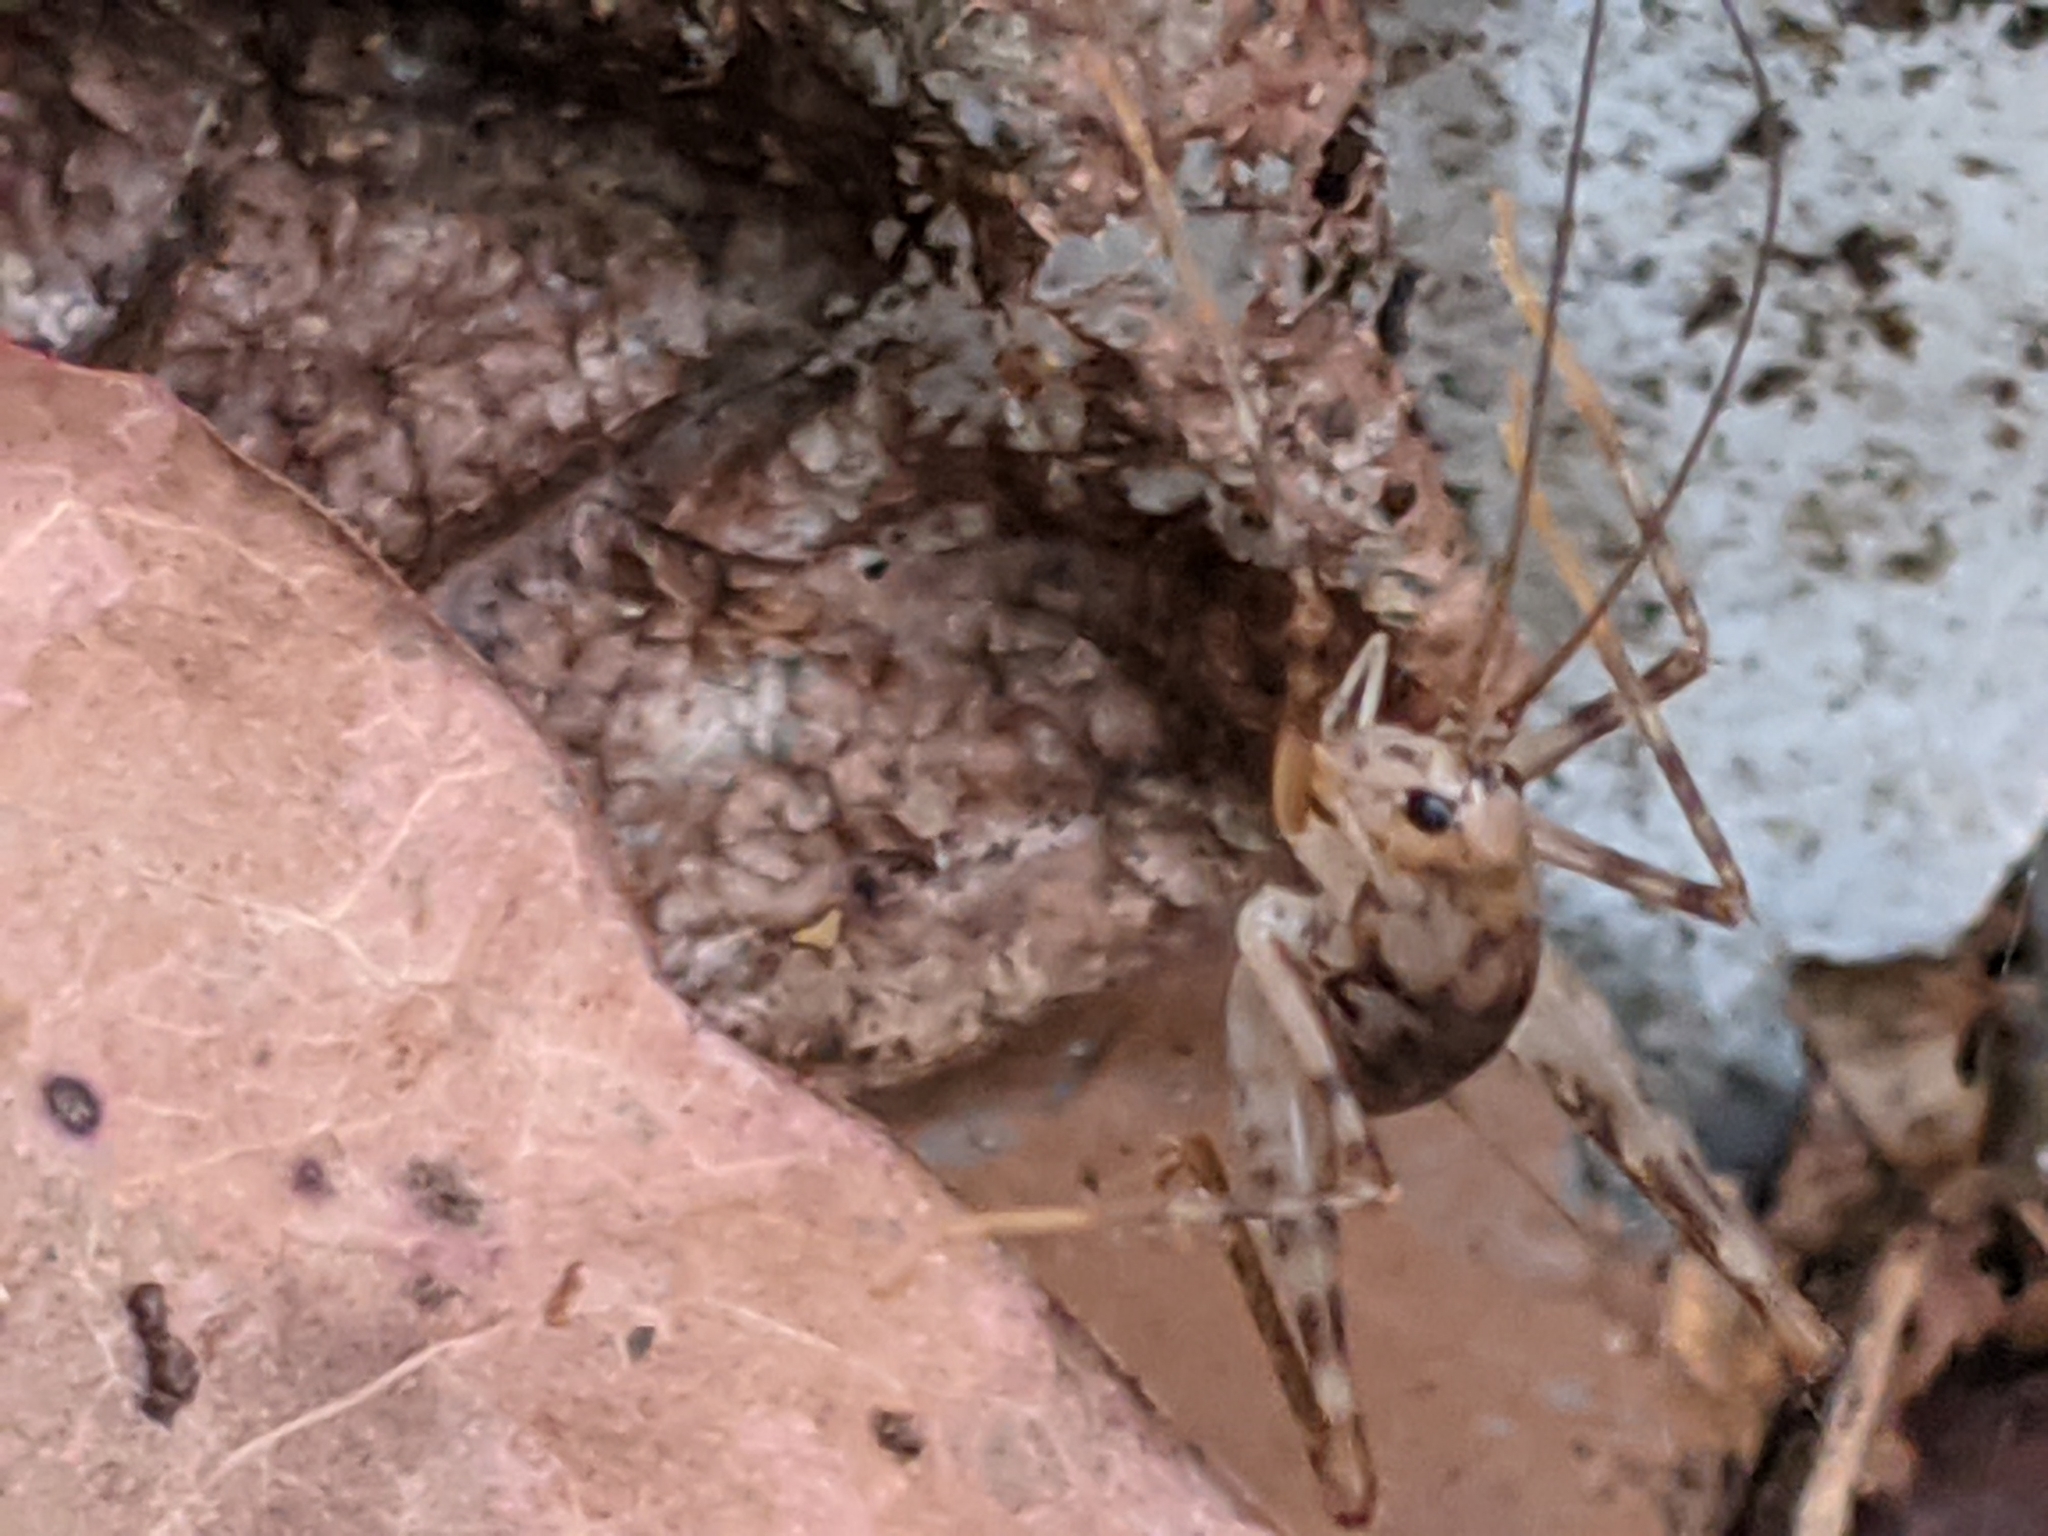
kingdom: Animalia
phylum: Arthropoda
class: Insecta
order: Orthoptera
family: Rhaphidophoridae
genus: Tachycines
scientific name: Tachycines asynamorus
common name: Greenhouse camel cricket
